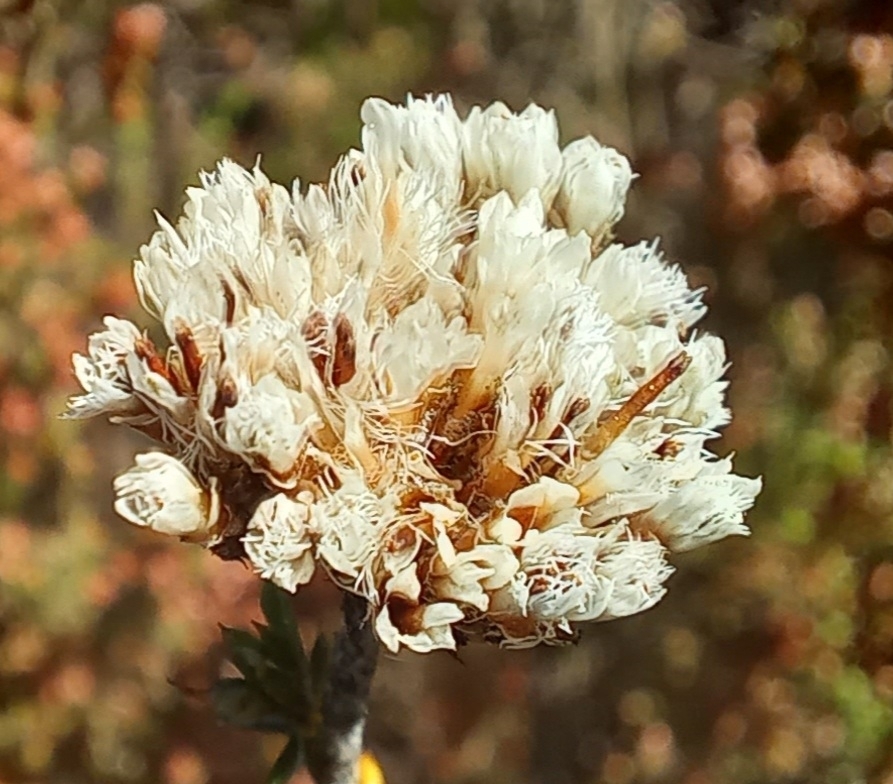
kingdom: Plantae
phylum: Tracheophyta
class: Magnoliopsida
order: Asterales
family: Asteraceae
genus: Metalasia
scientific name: Metalasia densa
